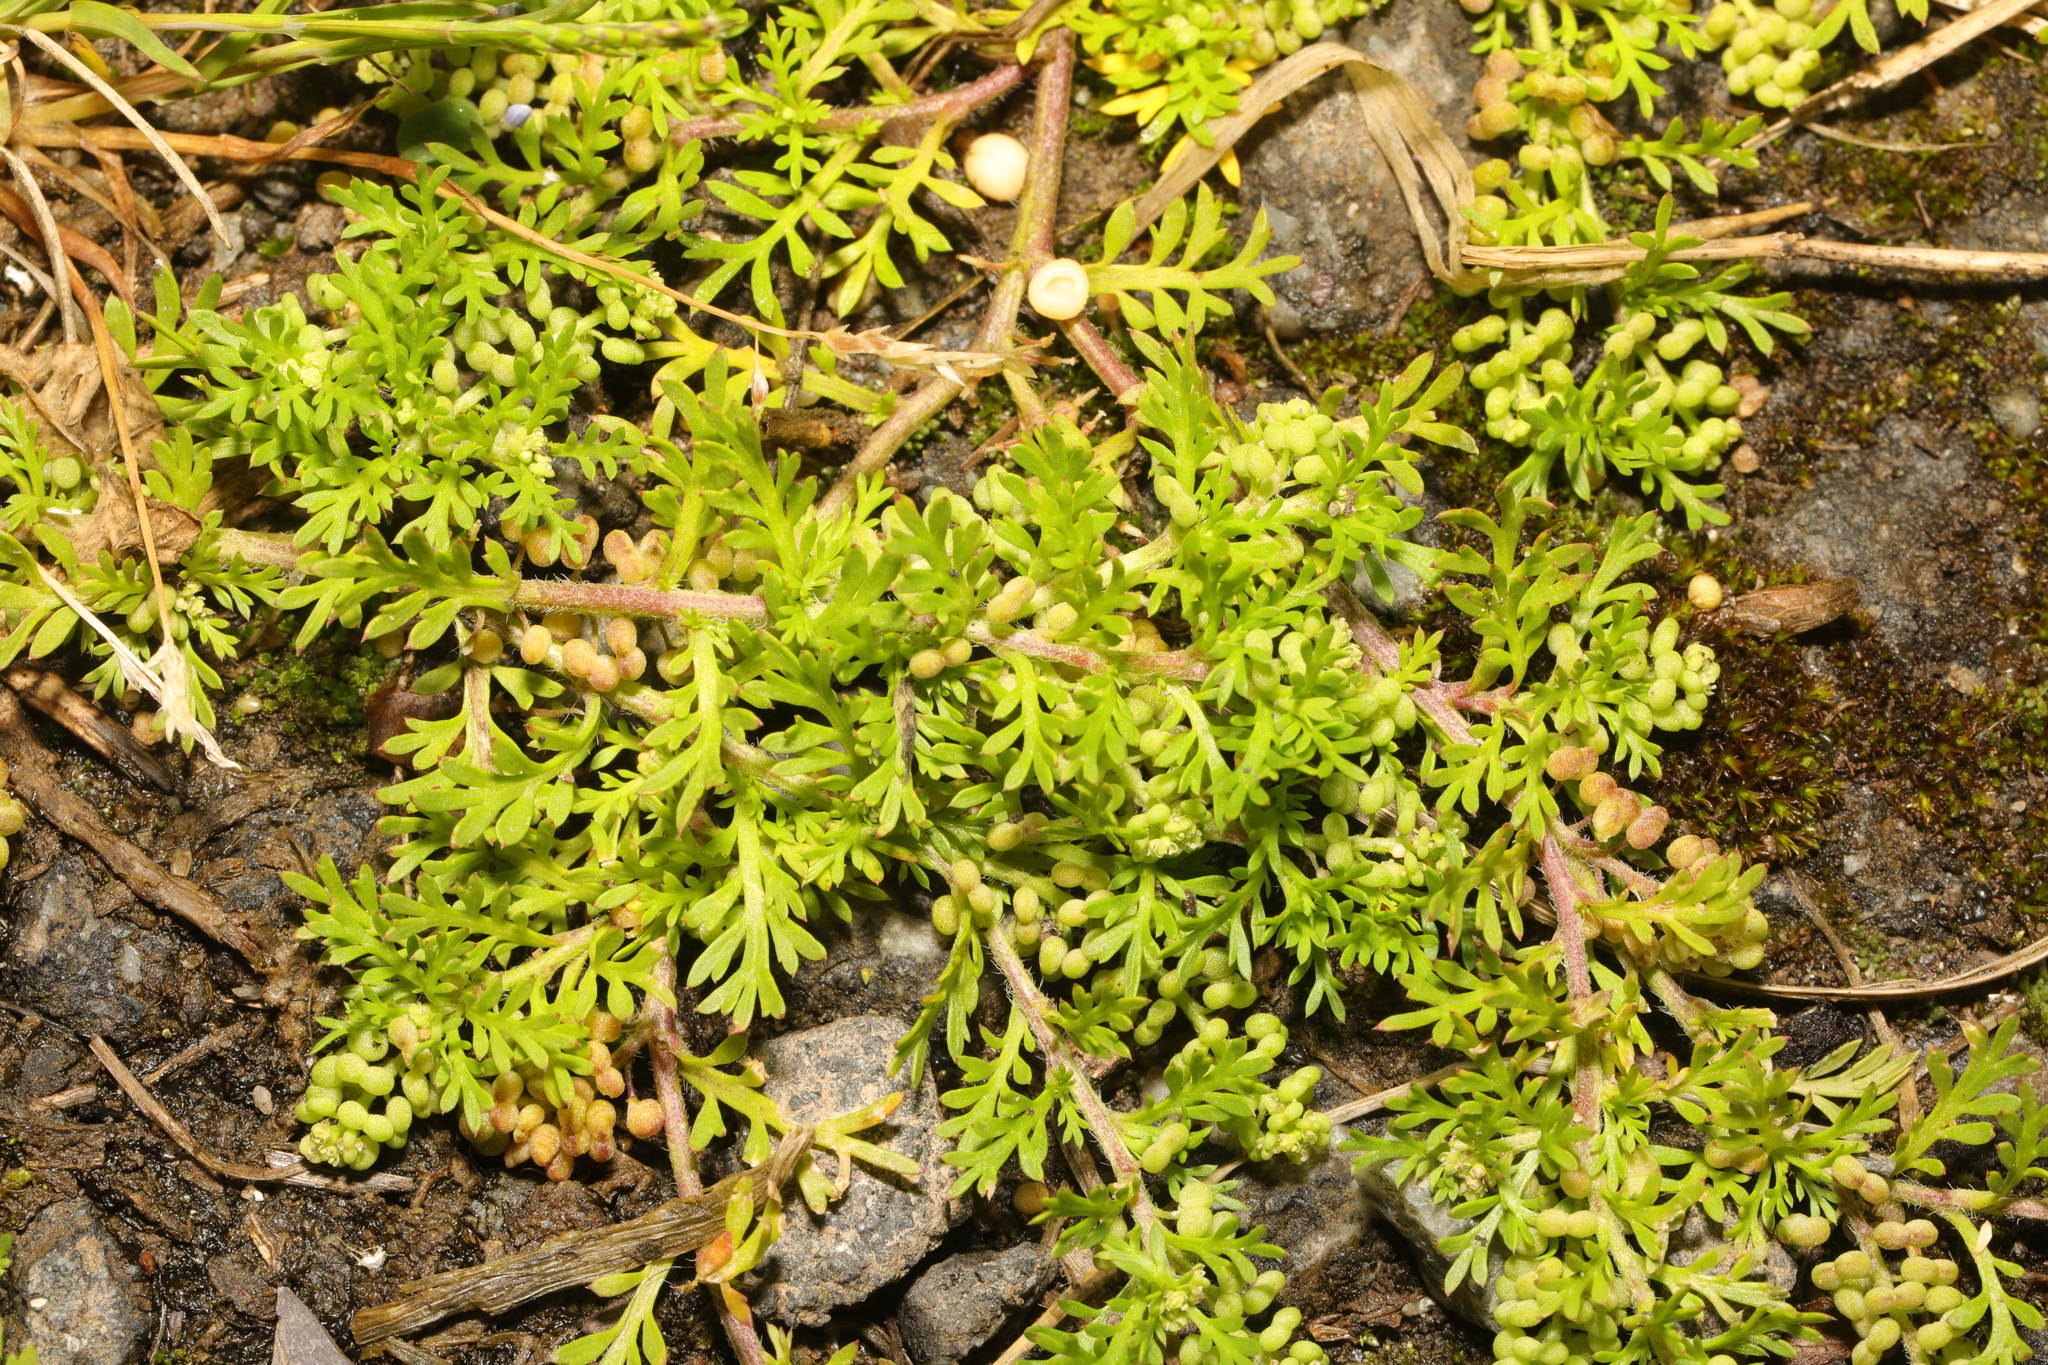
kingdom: Plantae
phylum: Tracheophyta
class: Magnoliopsida
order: Brassicales
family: Brassicaceae
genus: Lepidium
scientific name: Lepidium didymum
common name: Lesser swinecress
